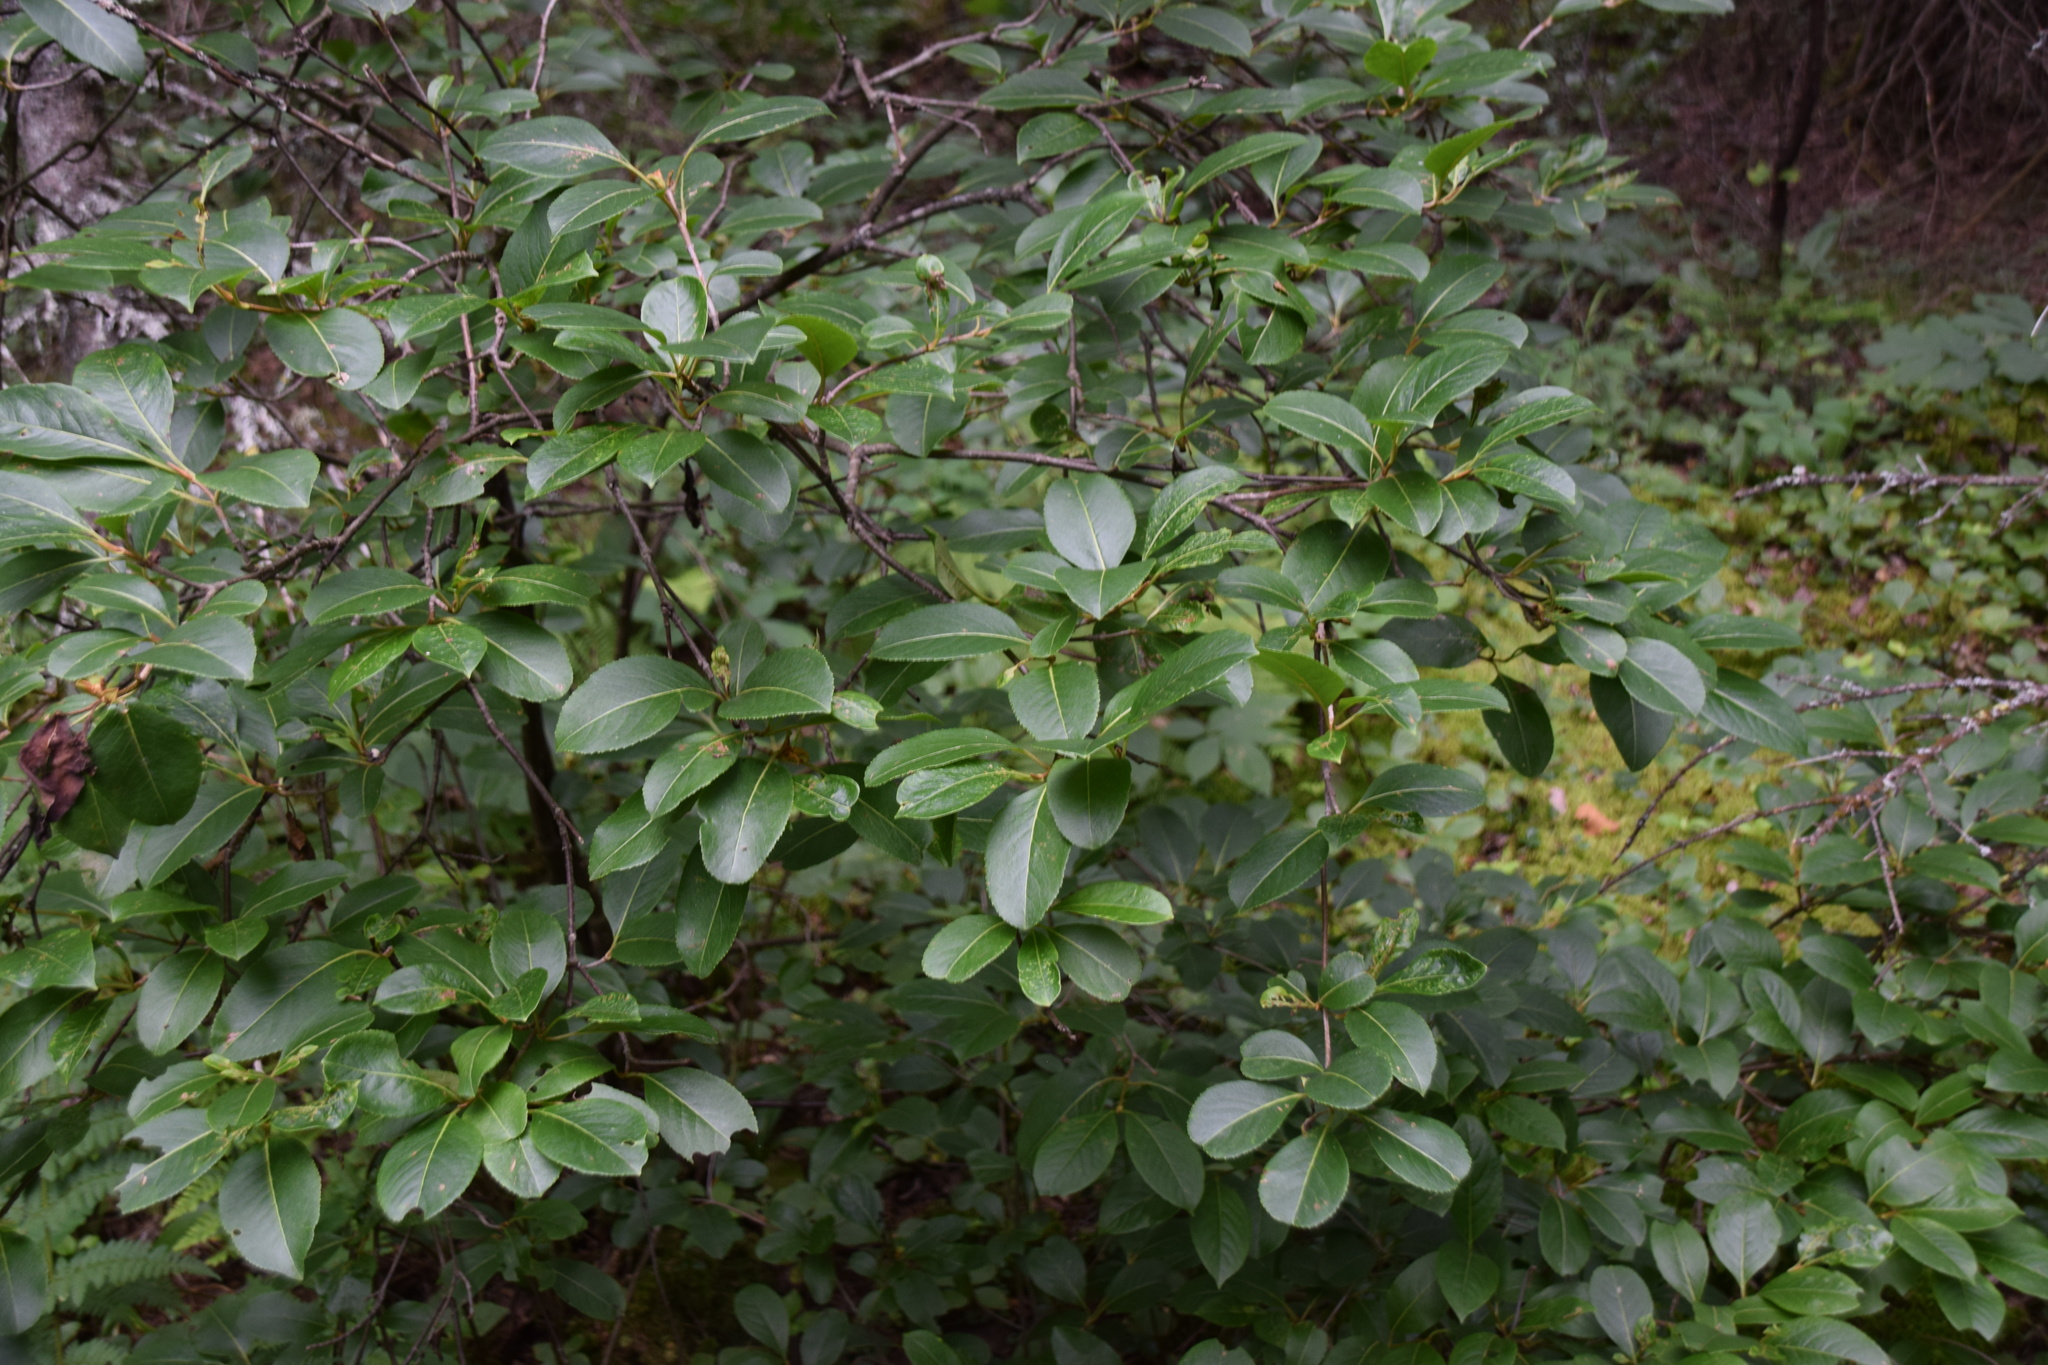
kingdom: Plantae
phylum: Tracheophyta
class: Magnoliopsida
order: Dipsacales
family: Viburnaceae
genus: Viburnum
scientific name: Viburnum cassinoides
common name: Swamp haw
